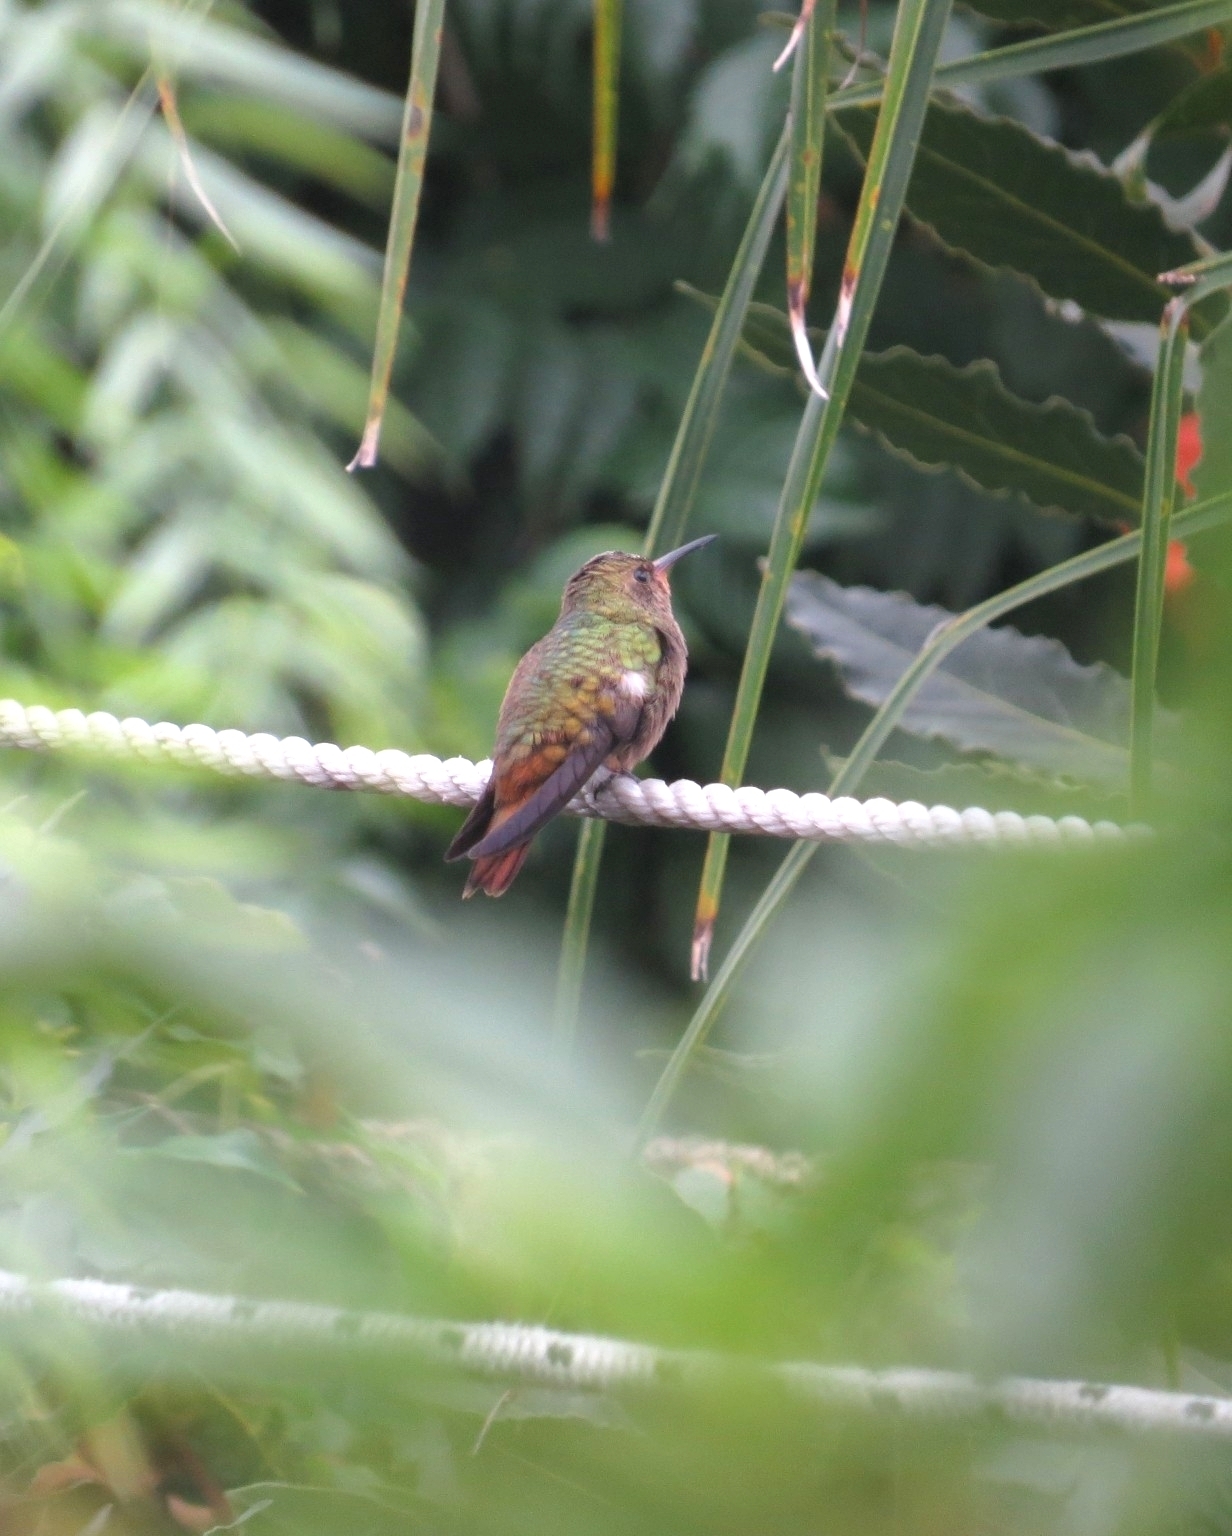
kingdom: Animalia
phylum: Chordata
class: Aves
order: Apodiformes
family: Trochilidae
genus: Hylocharis
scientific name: Hylocharis chrysura
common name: Gilded sapphire
